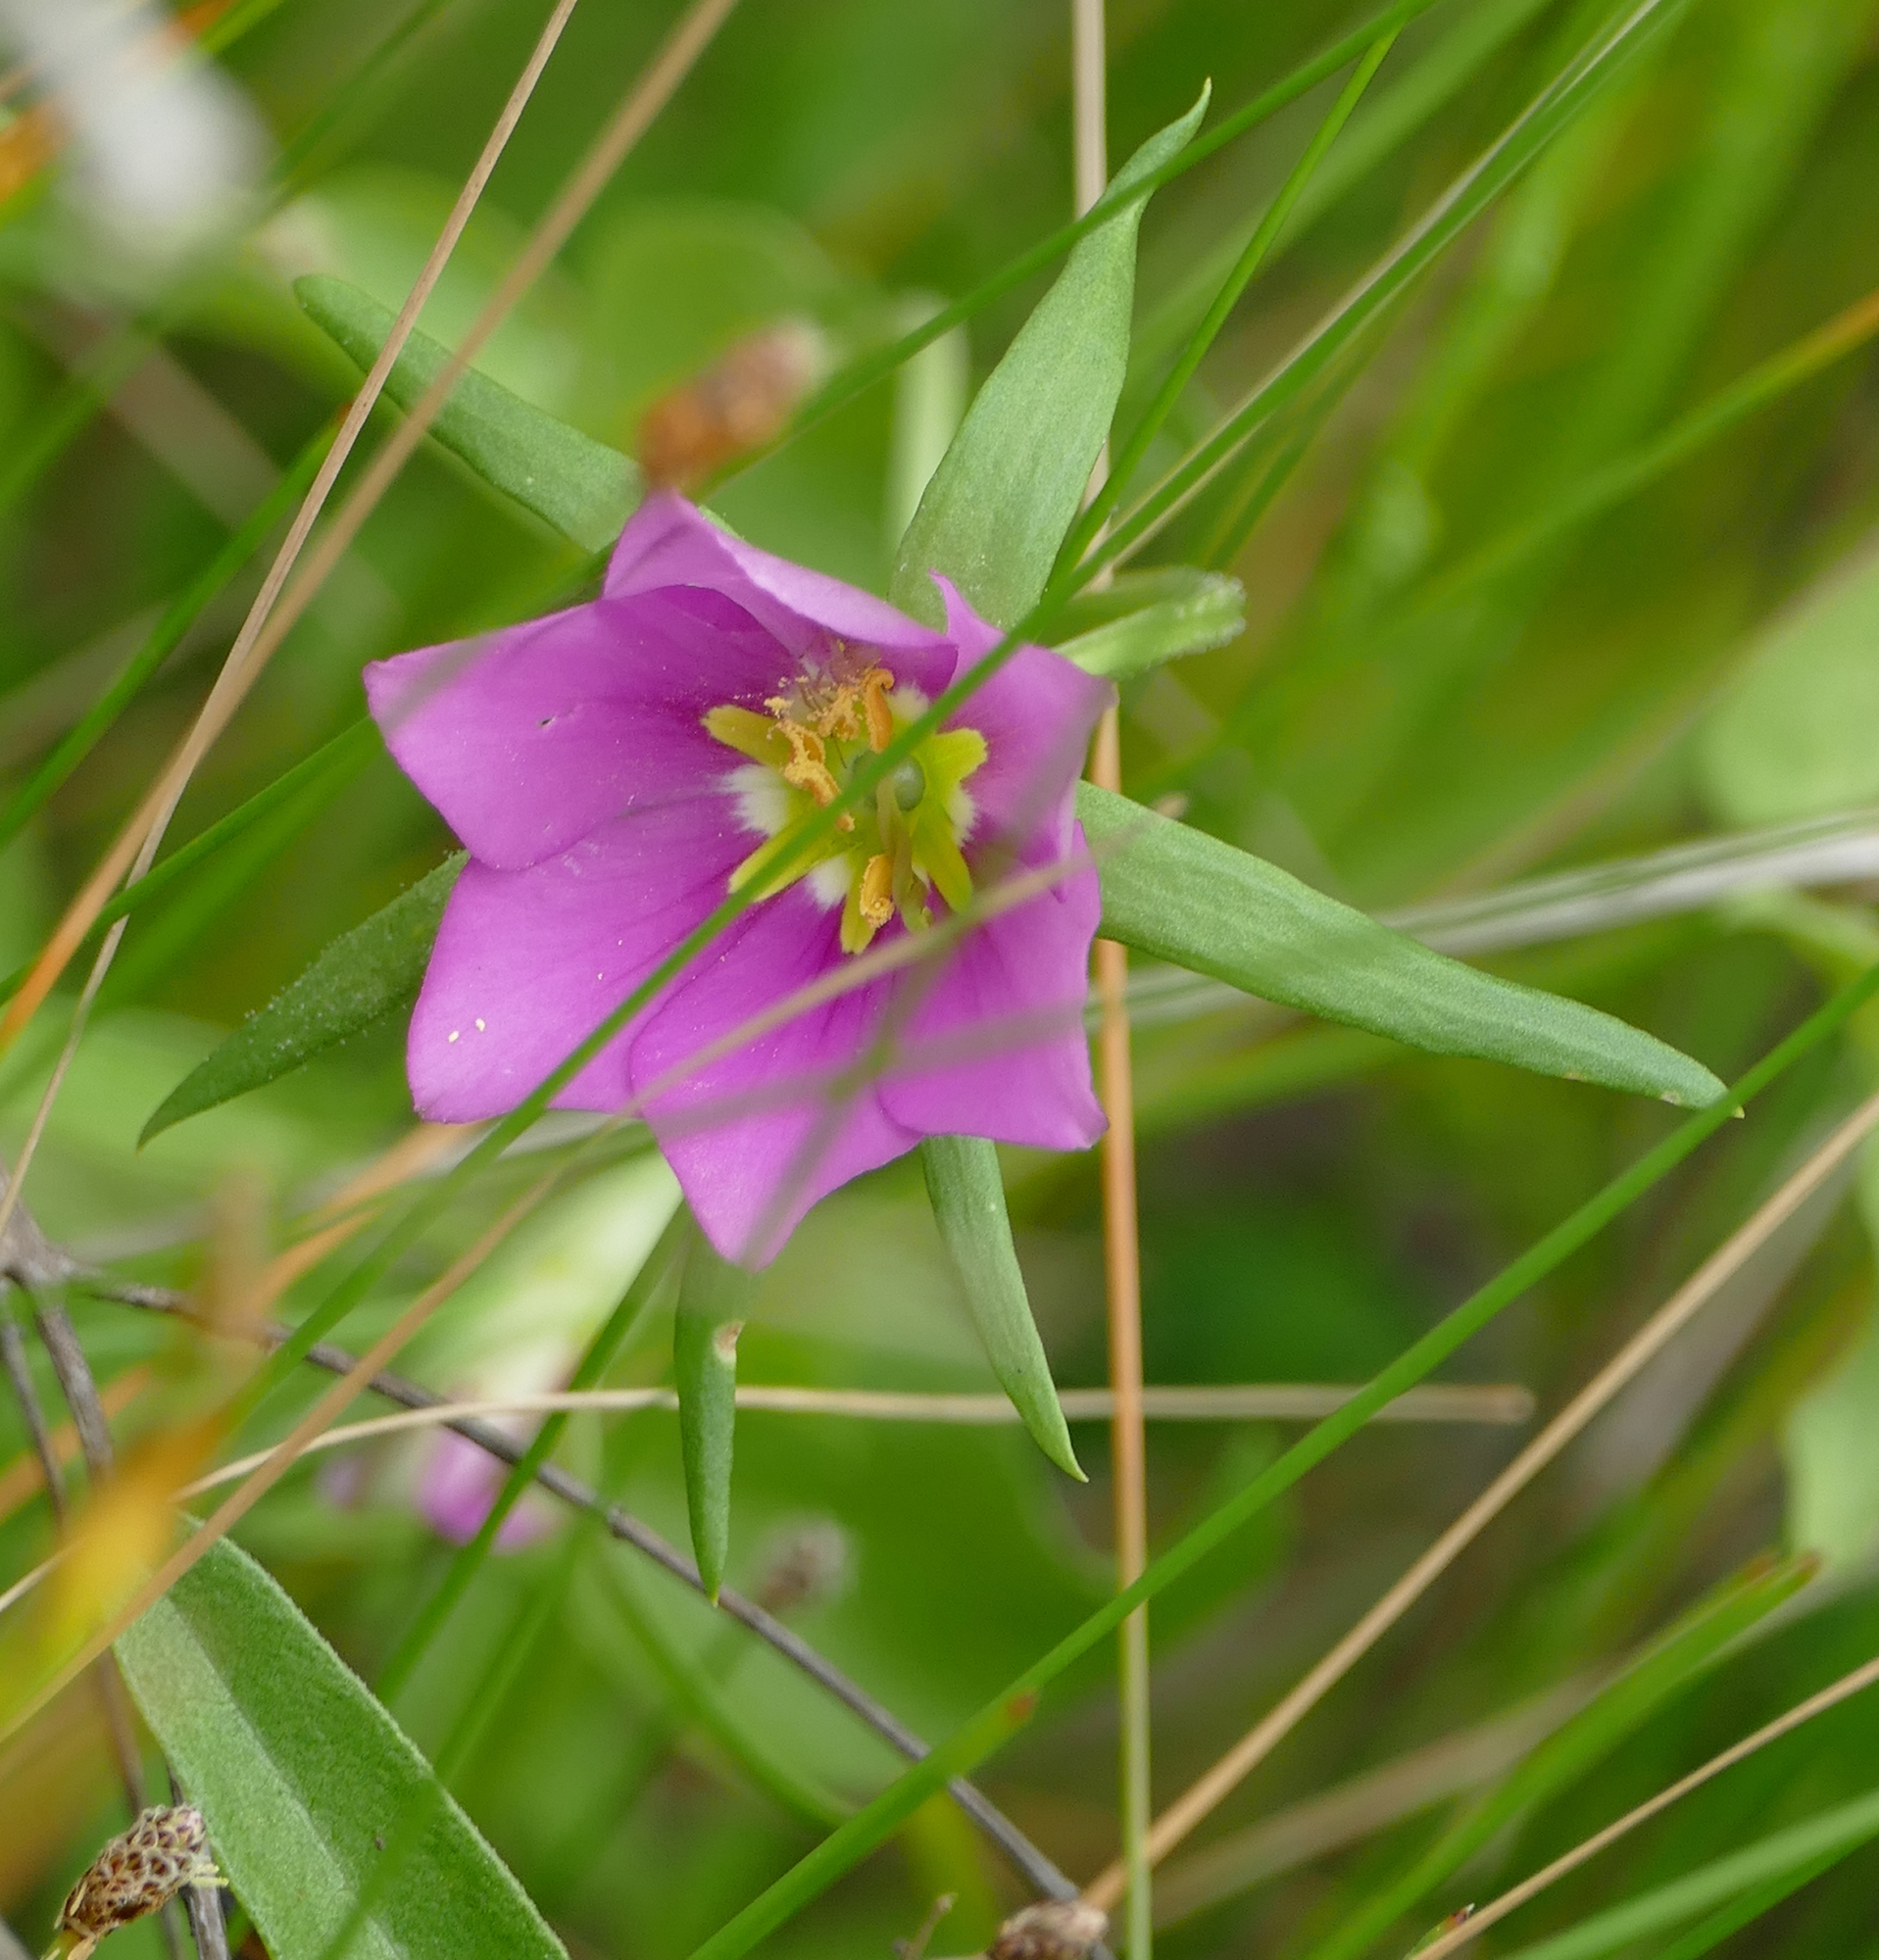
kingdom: Plantae
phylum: Tracheophyta
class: Magnoliopsida
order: Gentianales
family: Gentianaceae
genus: Sabatia
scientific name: Sabatia campestris
